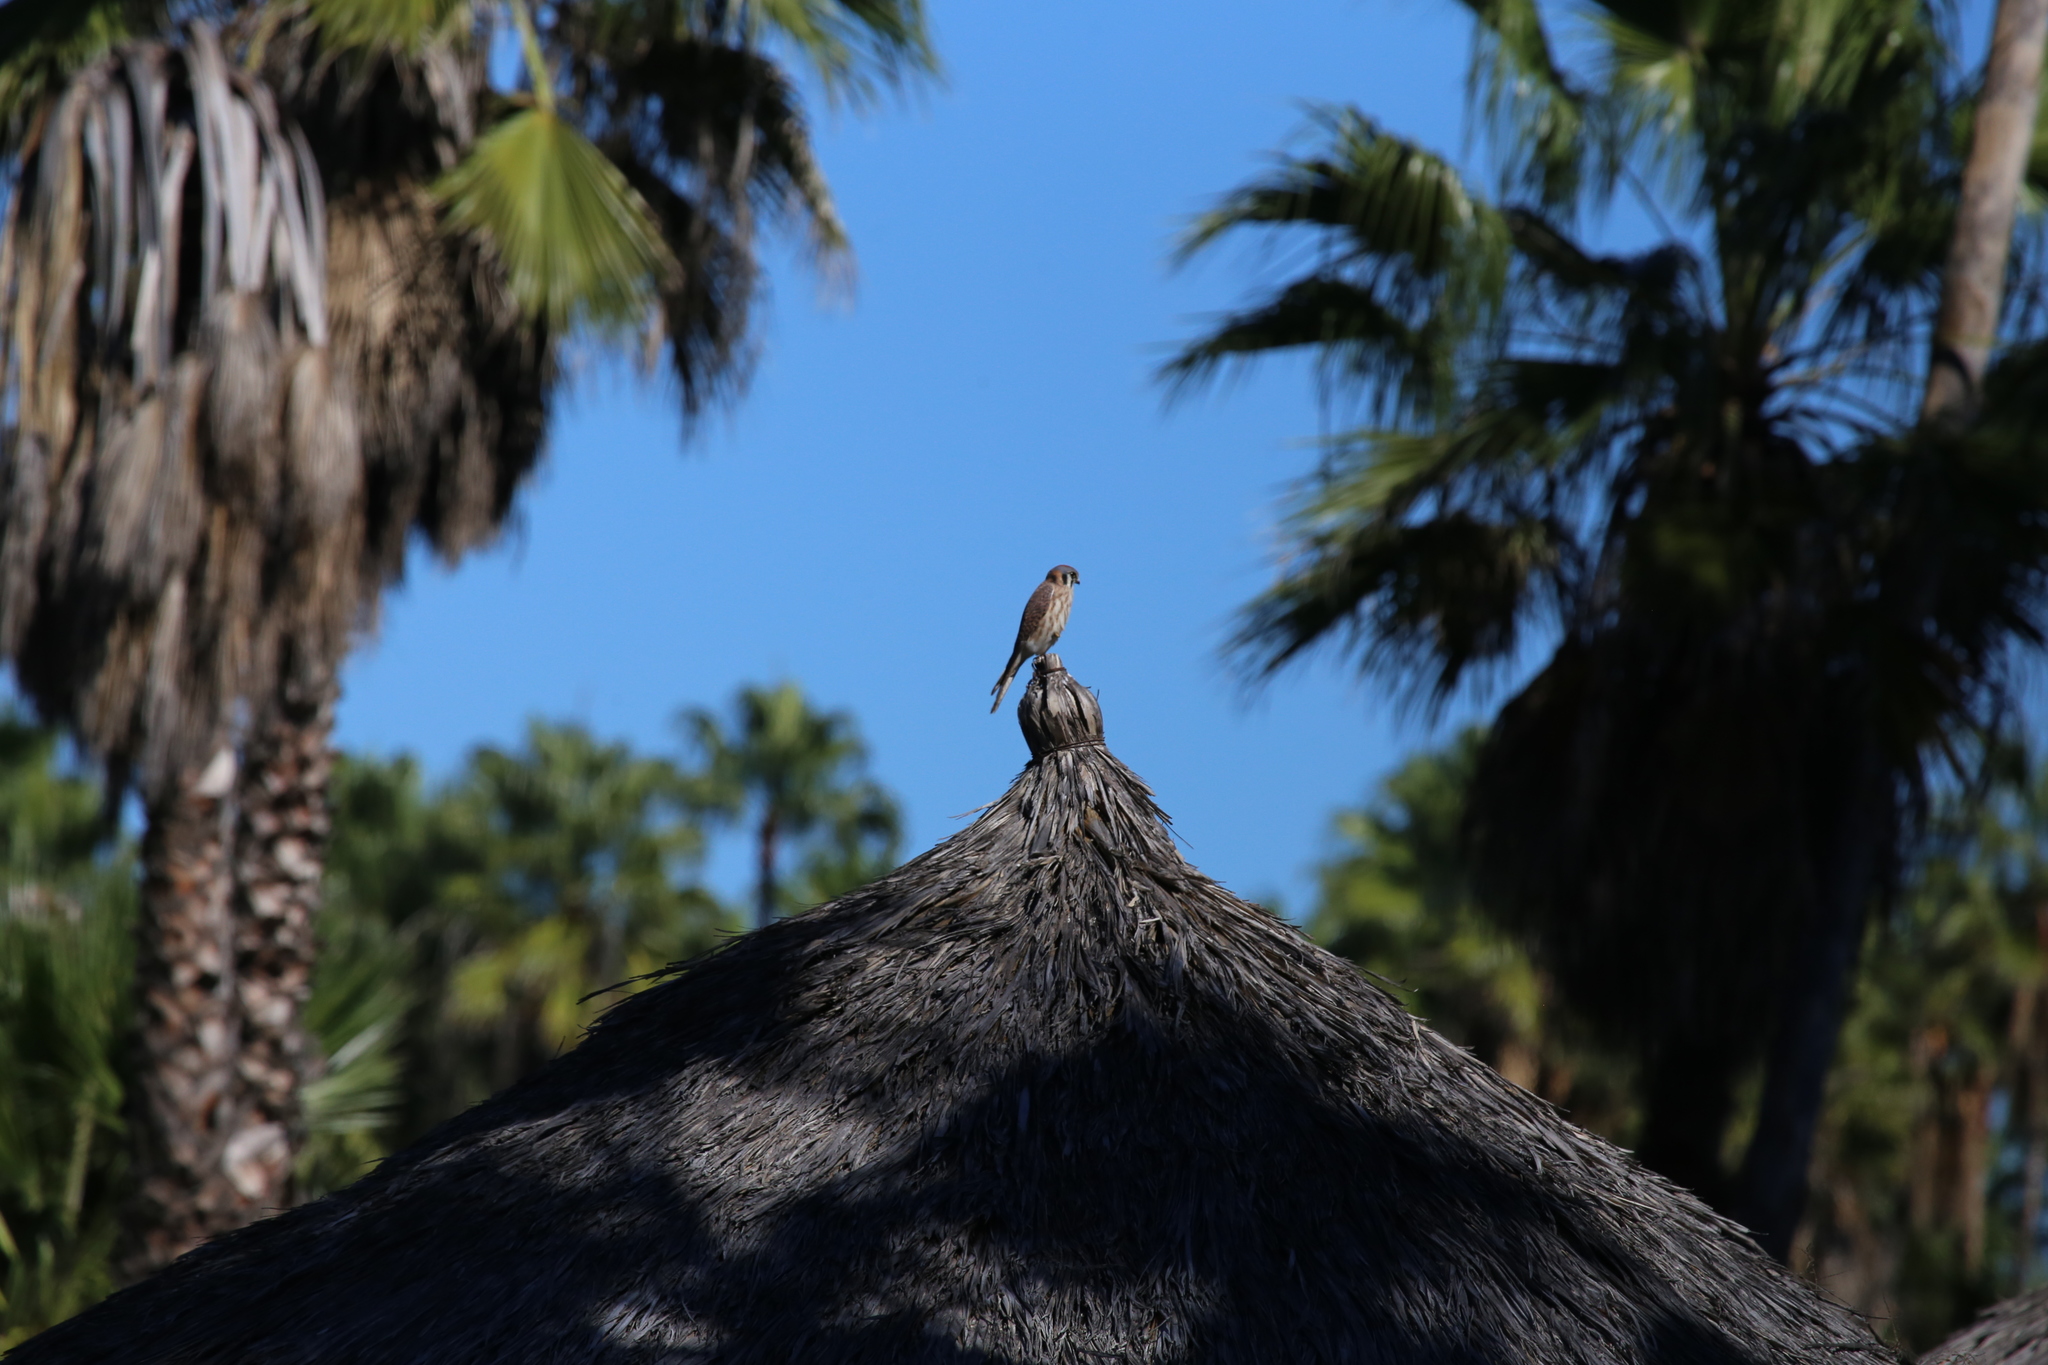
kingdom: Animalia
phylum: Chordata
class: Aves
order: Falconiformes
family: Falconidae
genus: Falco
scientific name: Falco sparverius
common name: American kestrel
